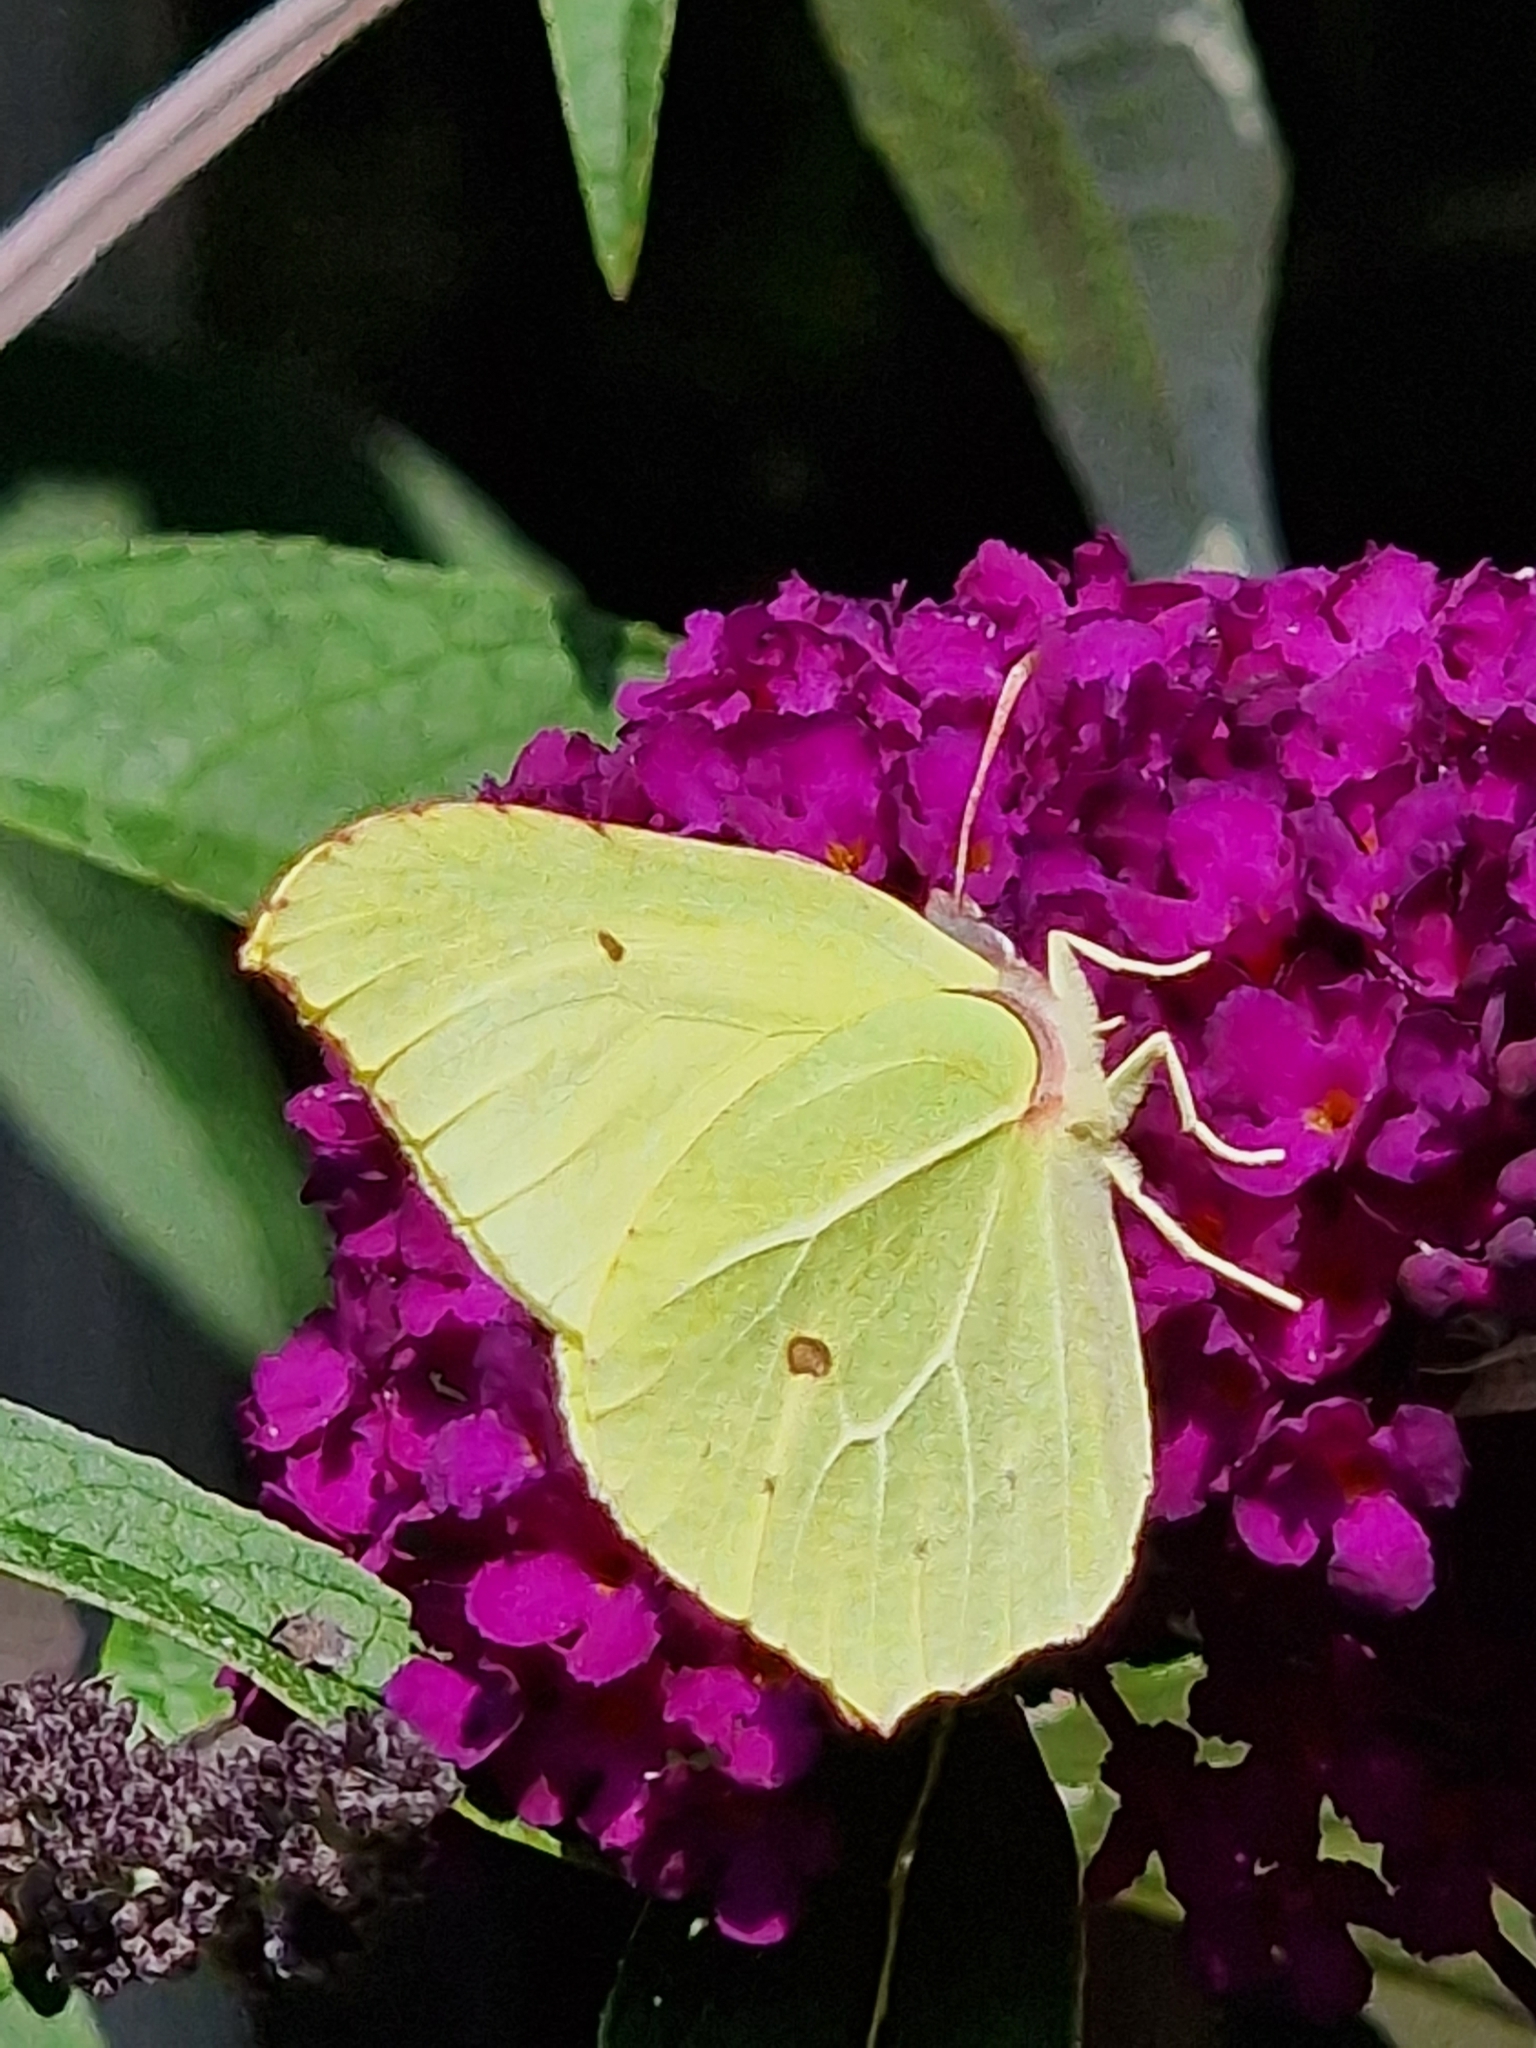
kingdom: Animalia
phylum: Arthropoda
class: Insecta
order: Lepidoptera
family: Pieridae
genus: Gonepteryx
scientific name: Gonepteryx rhamni
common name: Brimstone
